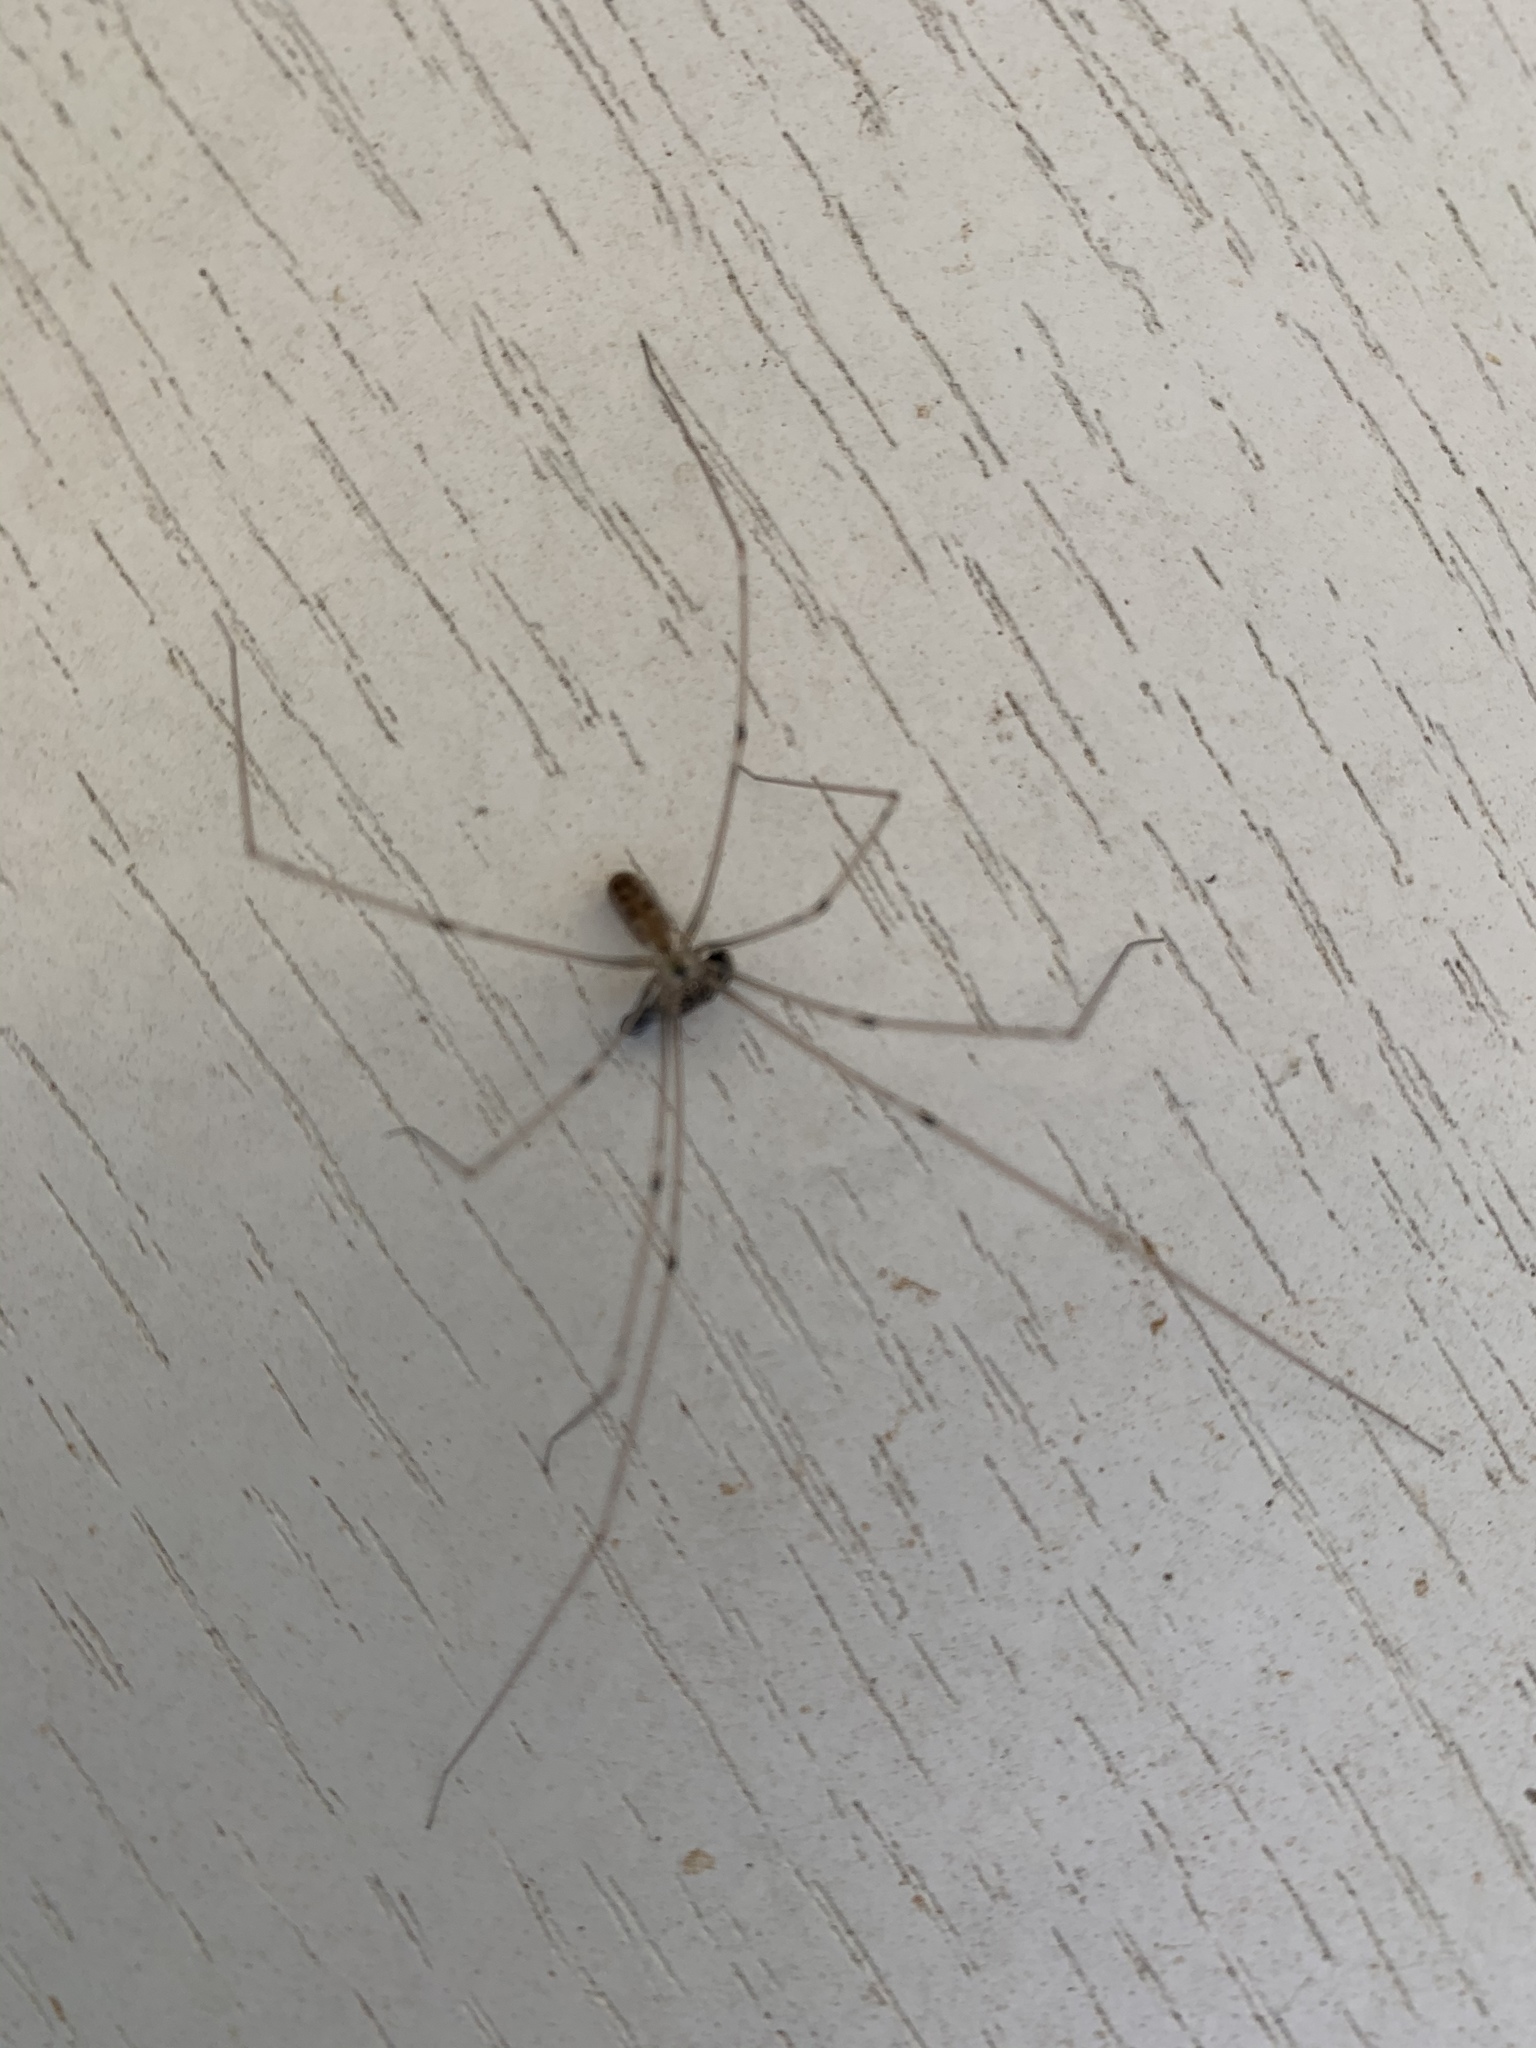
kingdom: Animalia
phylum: Arthropoda
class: Arachnida
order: Araneae
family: Pholcidae
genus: Pholcus
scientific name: Pholcus phalangioides
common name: Longbodied cellar spider
